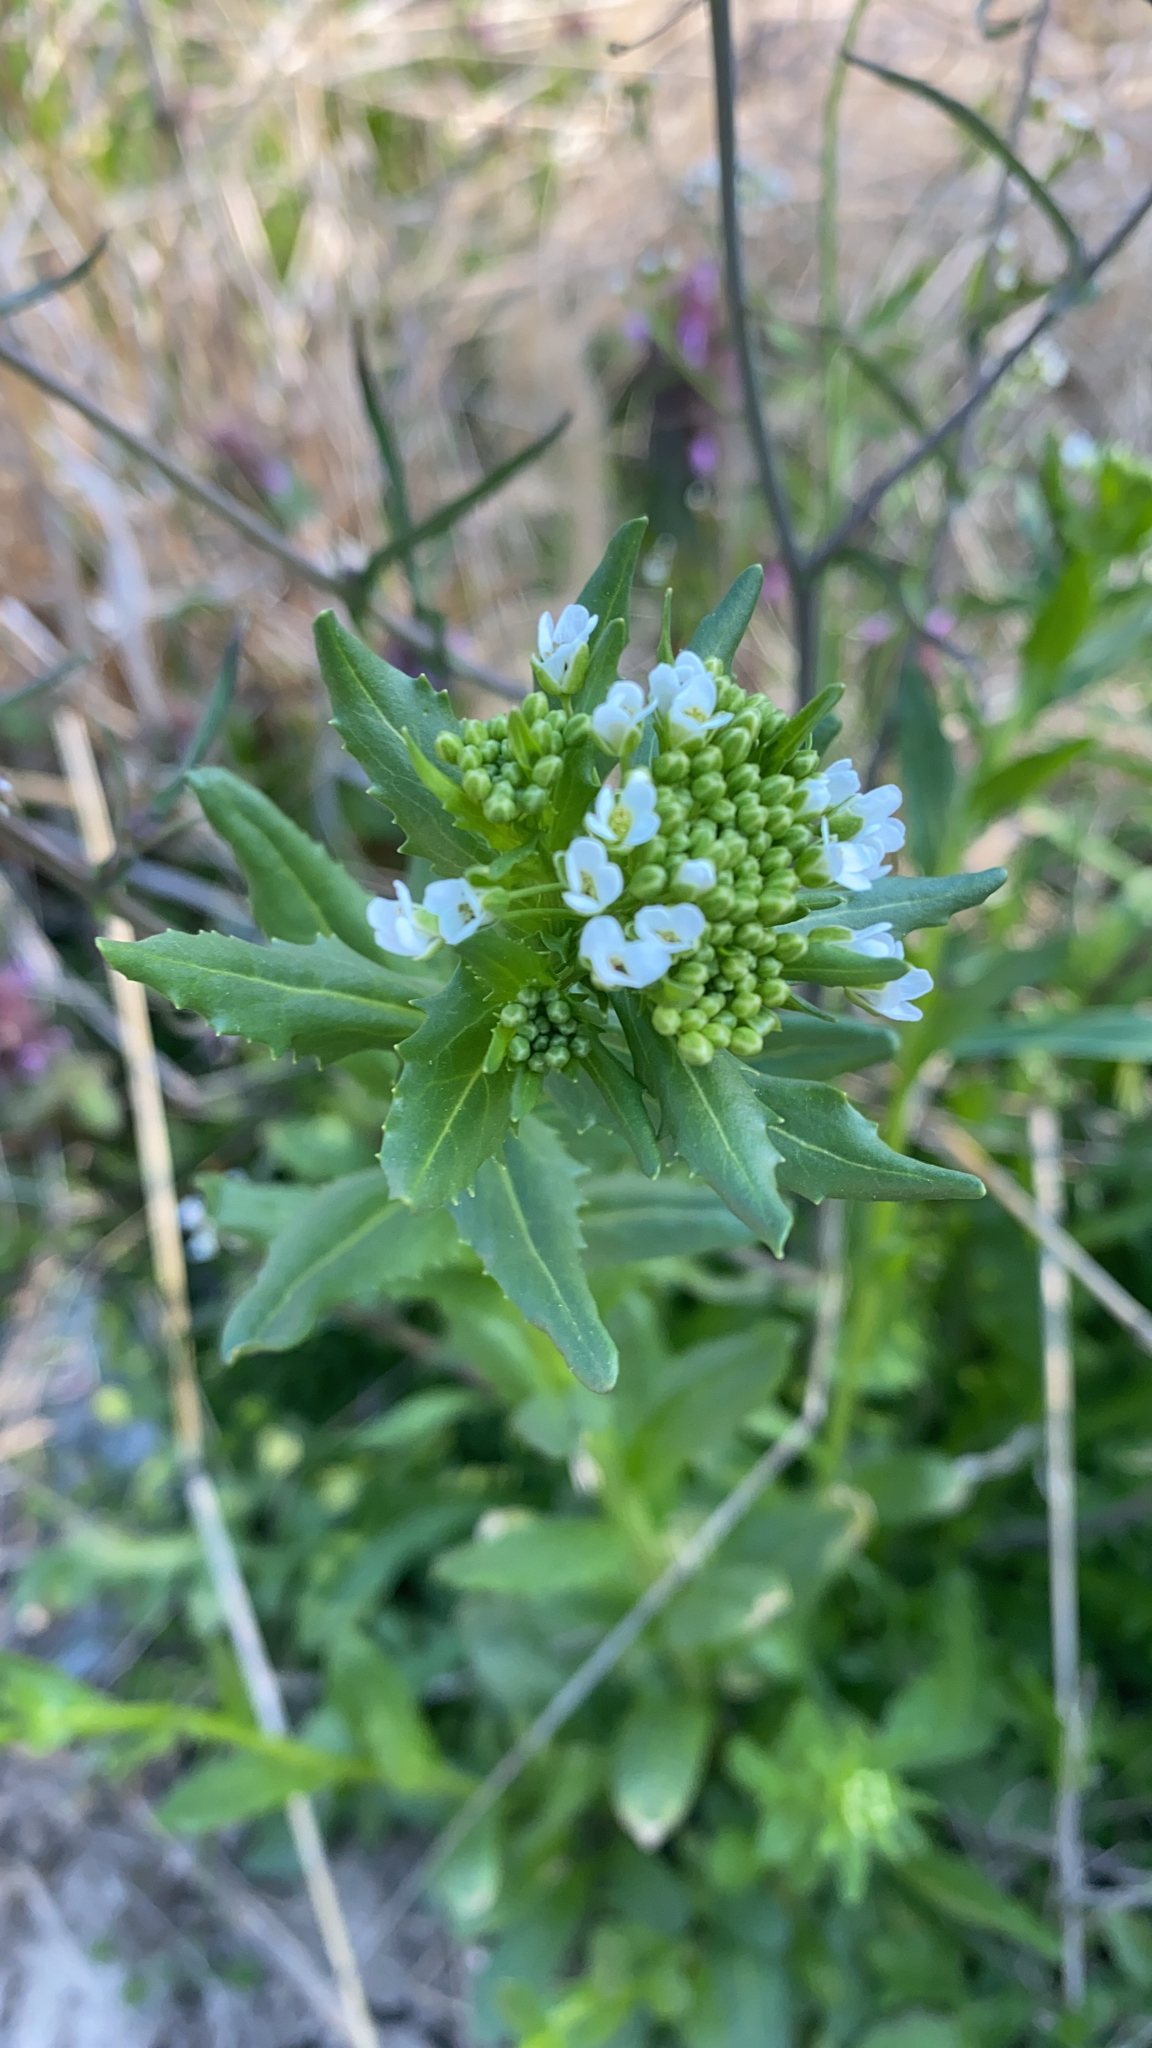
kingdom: Plantae
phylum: Tracheophyta
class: Magnoliopsida
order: Brassicales
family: Brassicaceae
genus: Thlaspi
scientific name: Thlaspi arvense
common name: Field pennycress
